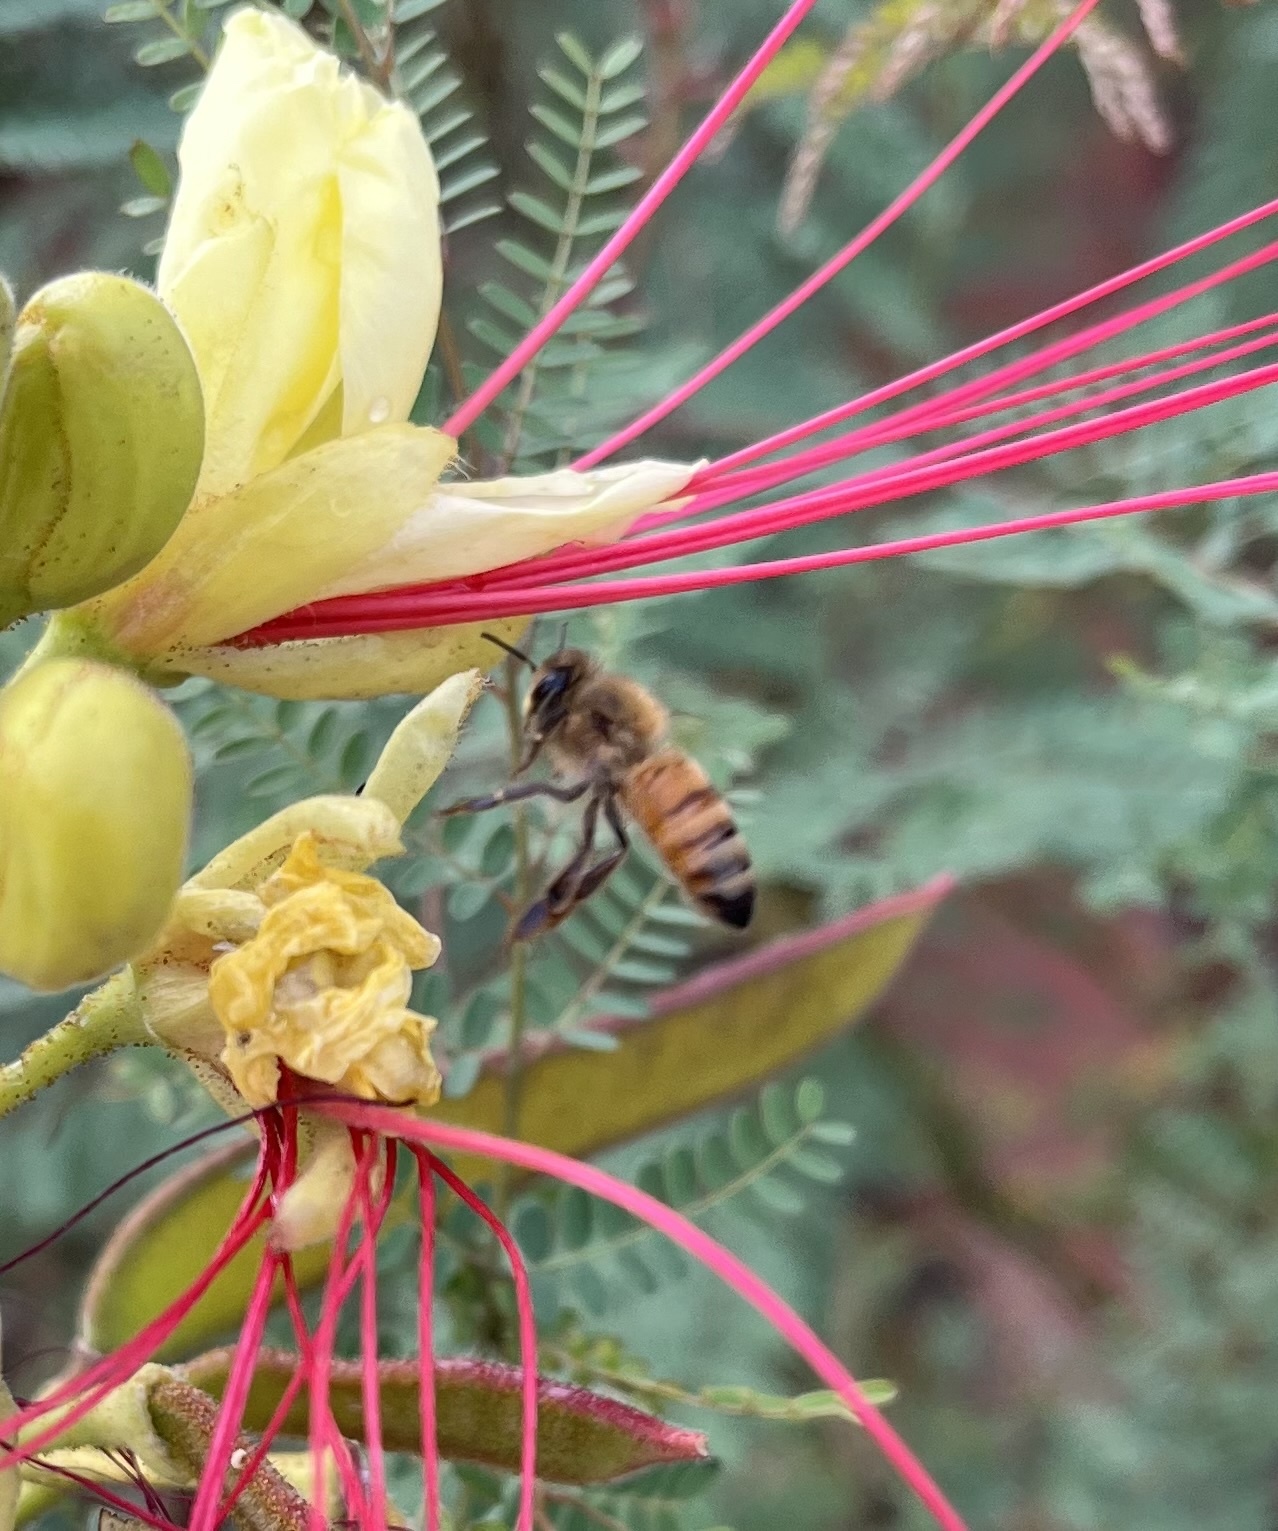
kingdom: Animalia
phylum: Arthropoda
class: Insecta
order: Hymenoptera
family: Apidae
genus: Apis
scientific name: Apis mellifera
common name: Honey bee
